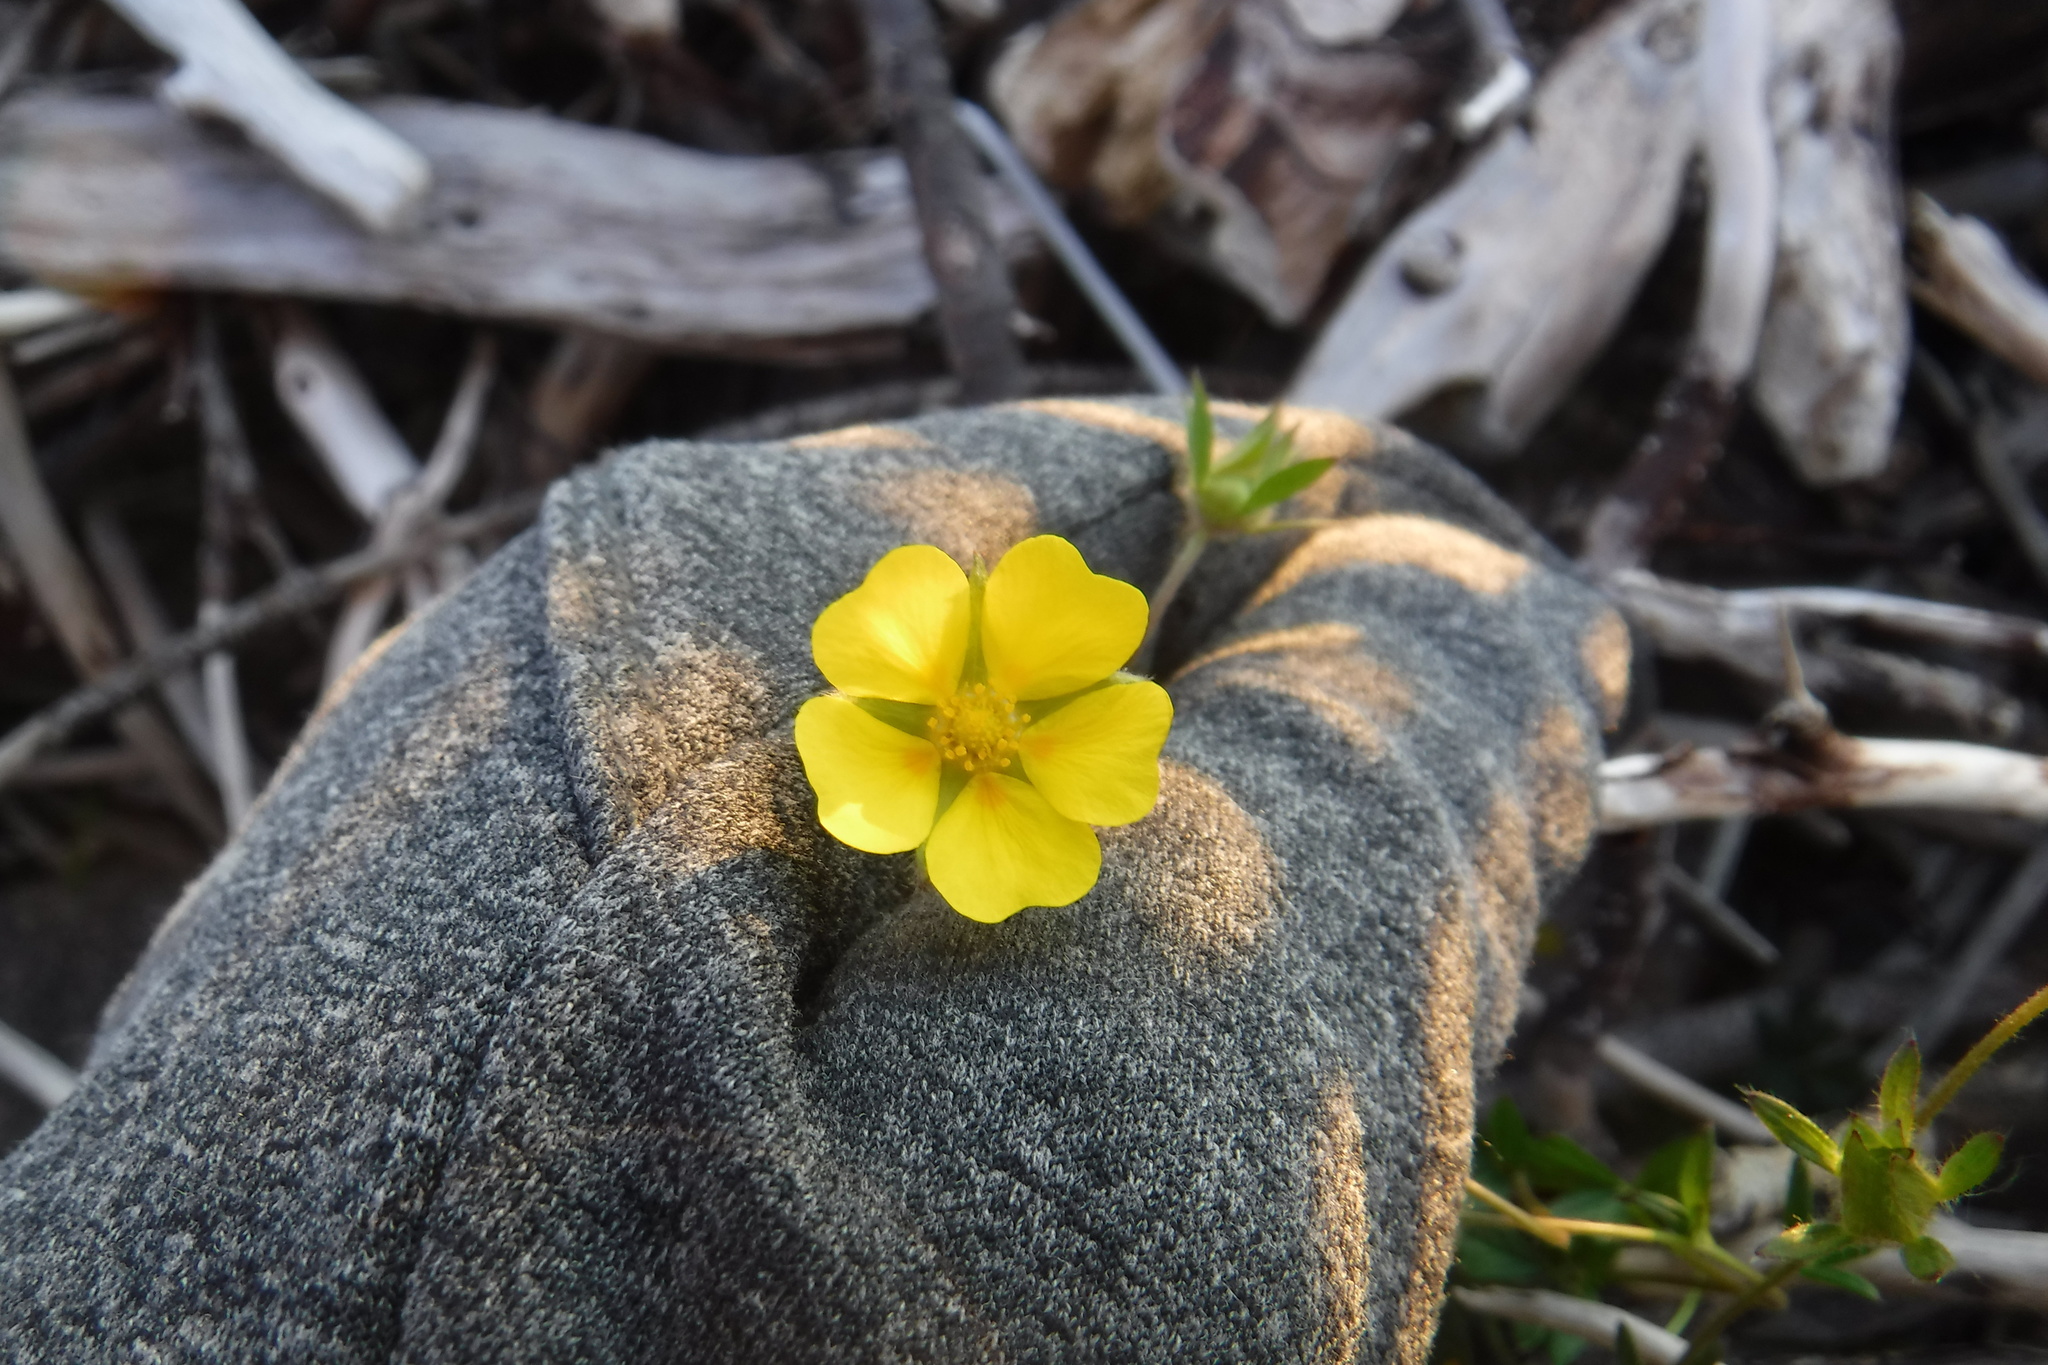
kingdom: Plantae
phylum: Tracheophyta
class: Magnoliopsida
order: Rosales
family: Rosaceae
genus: Potentilla
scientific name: Potentilla hyparctica
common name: Arctic cinquefoil
